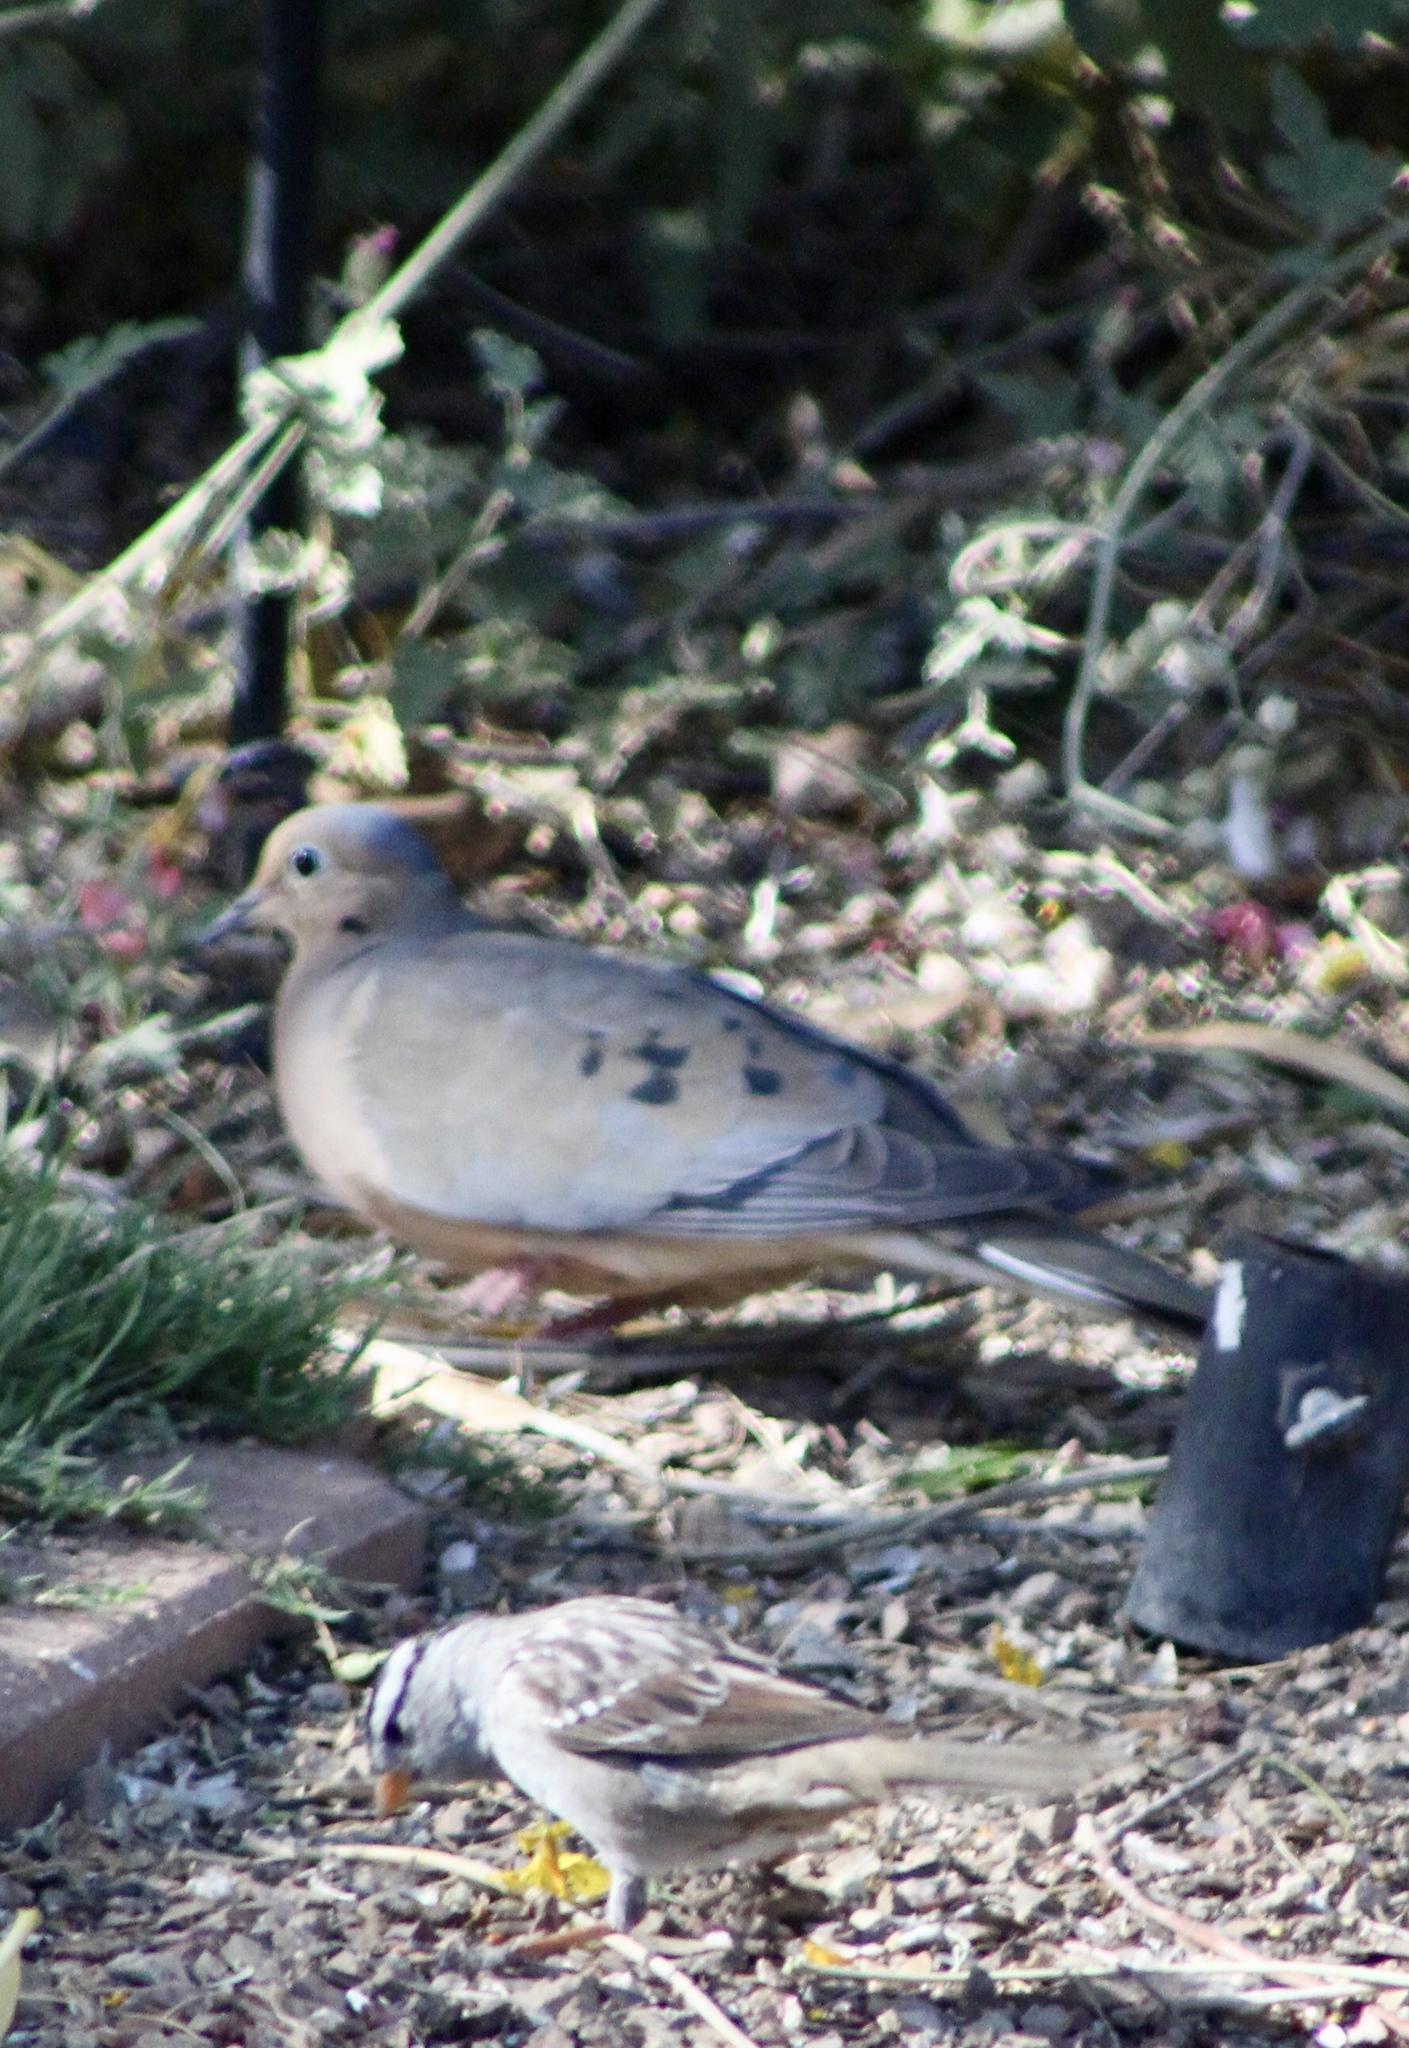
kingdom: Animalia
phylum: Chordata
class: Aves
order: Columbiformes
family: Columbidae
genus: Zenaida
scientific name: Zenaida macroura
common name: Mourning dove
